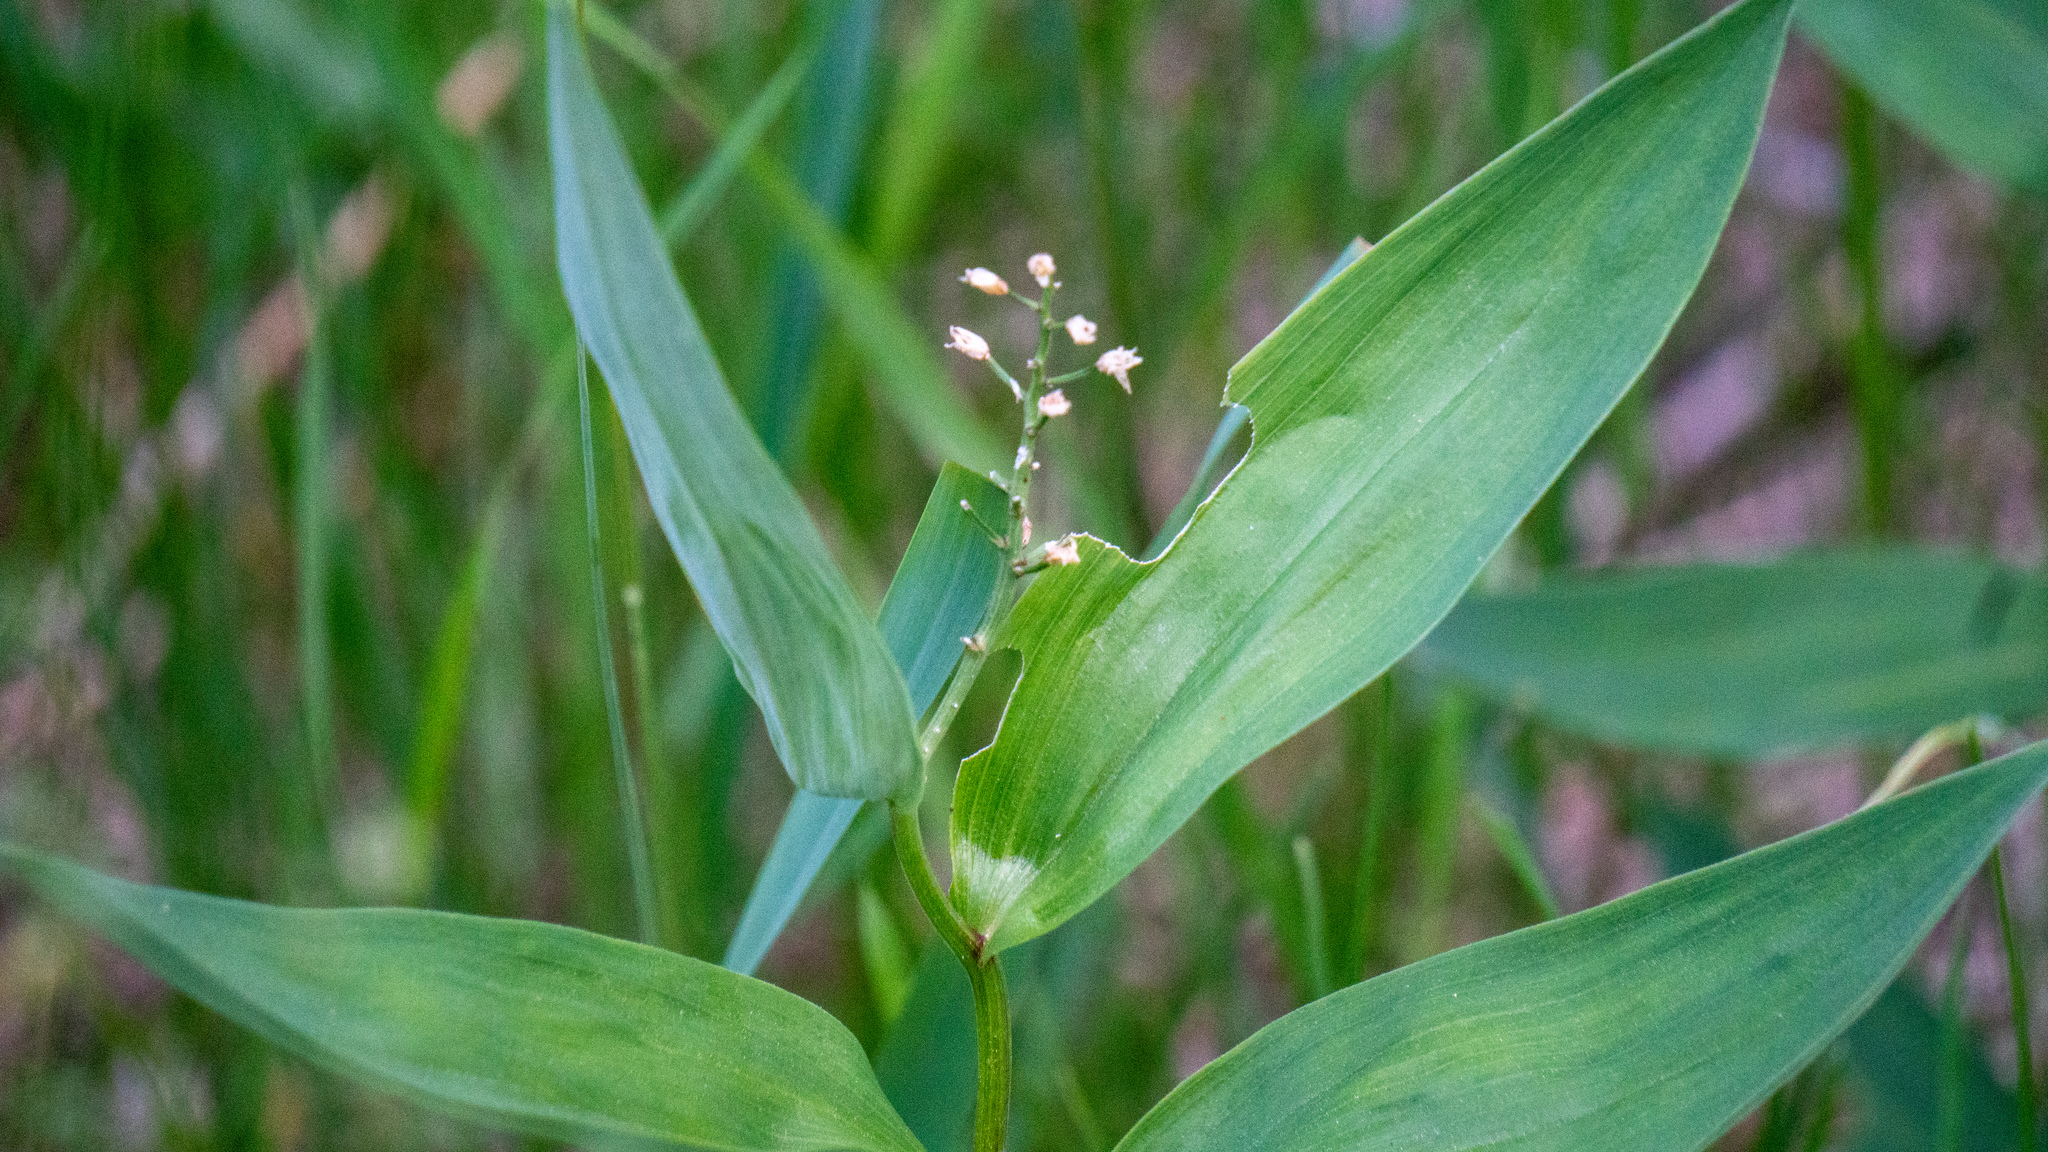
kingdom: Plantae
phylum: Tracheophyta
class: Liliopsida
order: Asparagales
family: Asparagaceae
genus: Maianthemum
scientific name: Maianthemum stellatum
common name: Little false solomon's seal
